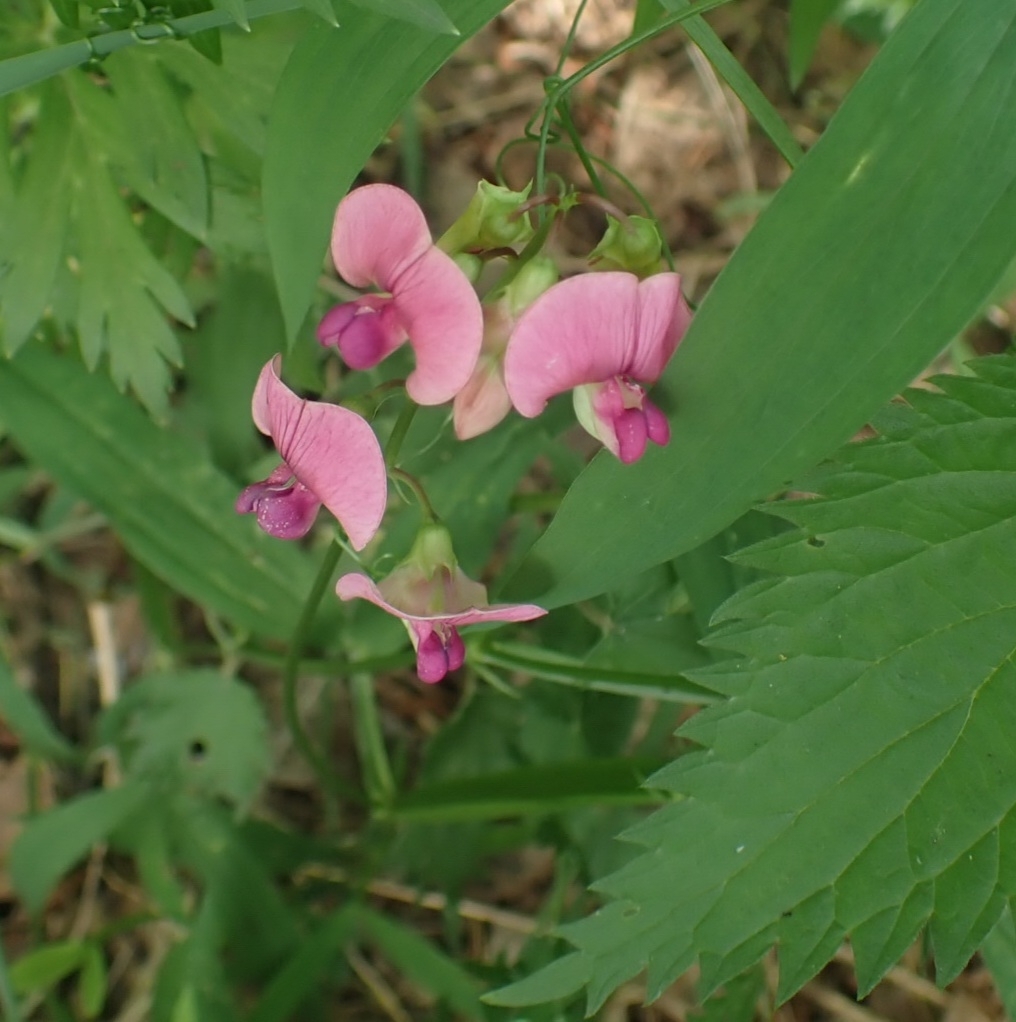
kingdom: Plantae
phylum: Tracheophyta
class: Magnoliopsida
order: Fabales
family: Fabaceae
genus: Lathyrus
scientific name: Lathyrus sylvestris
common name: Flat pea
